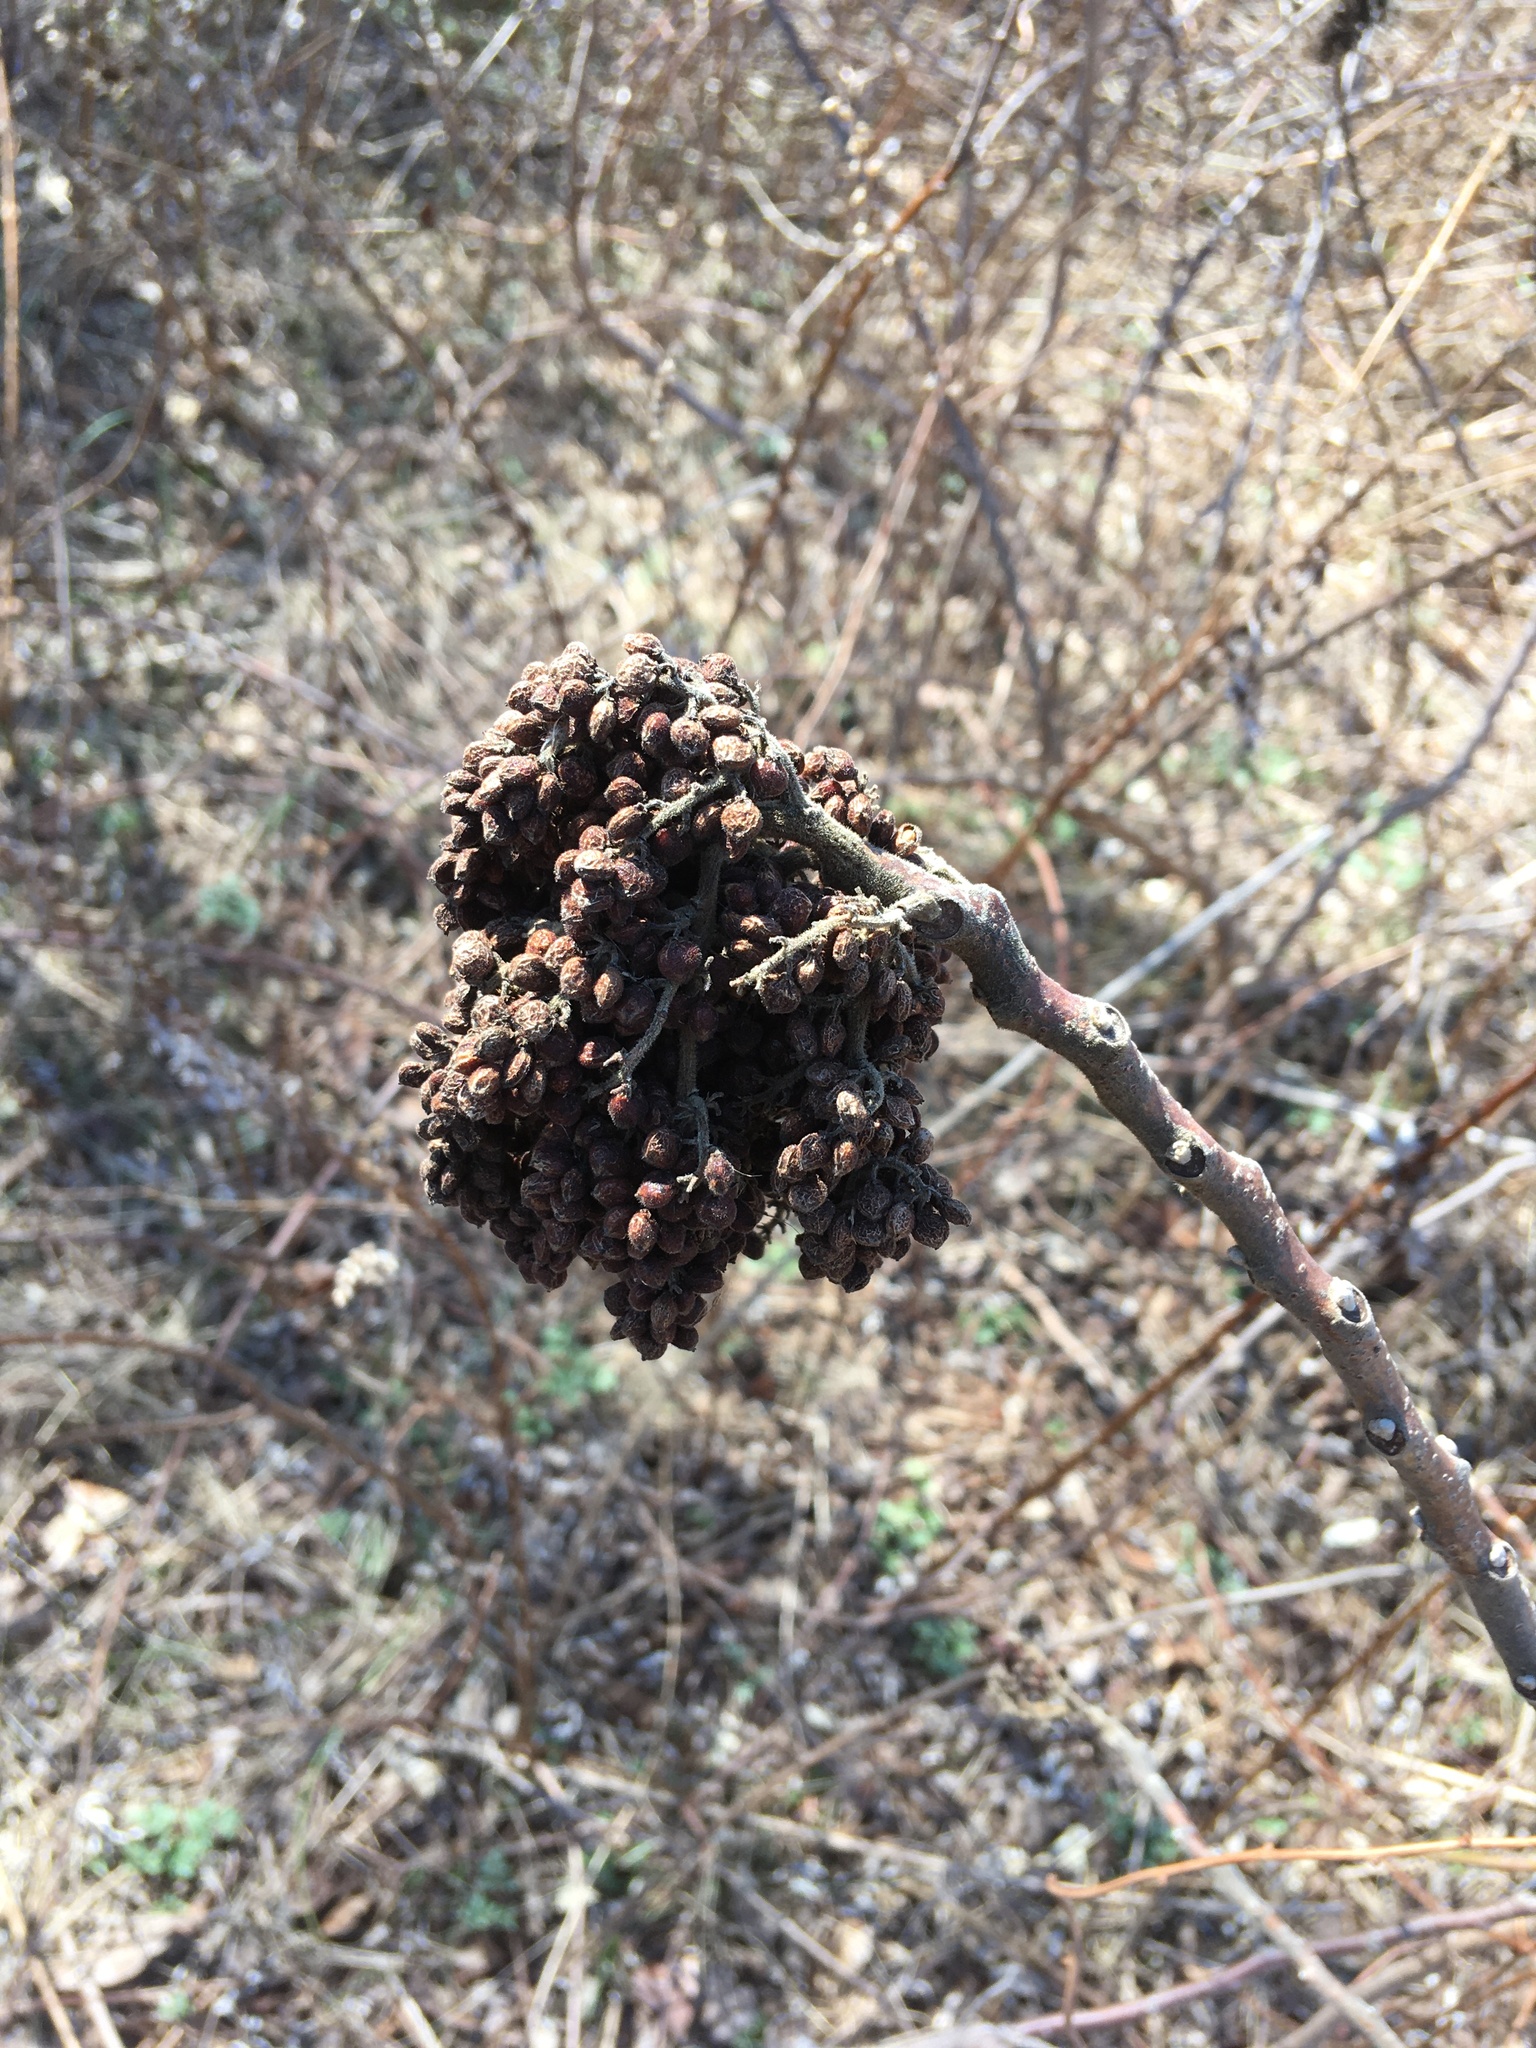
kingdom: Plantae
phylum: Tracheophyta
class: Magnoliopsida
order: Sapindales
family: Anacardiaceae
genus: Rhus
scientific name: Rhus copallina
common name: Shining sumac
